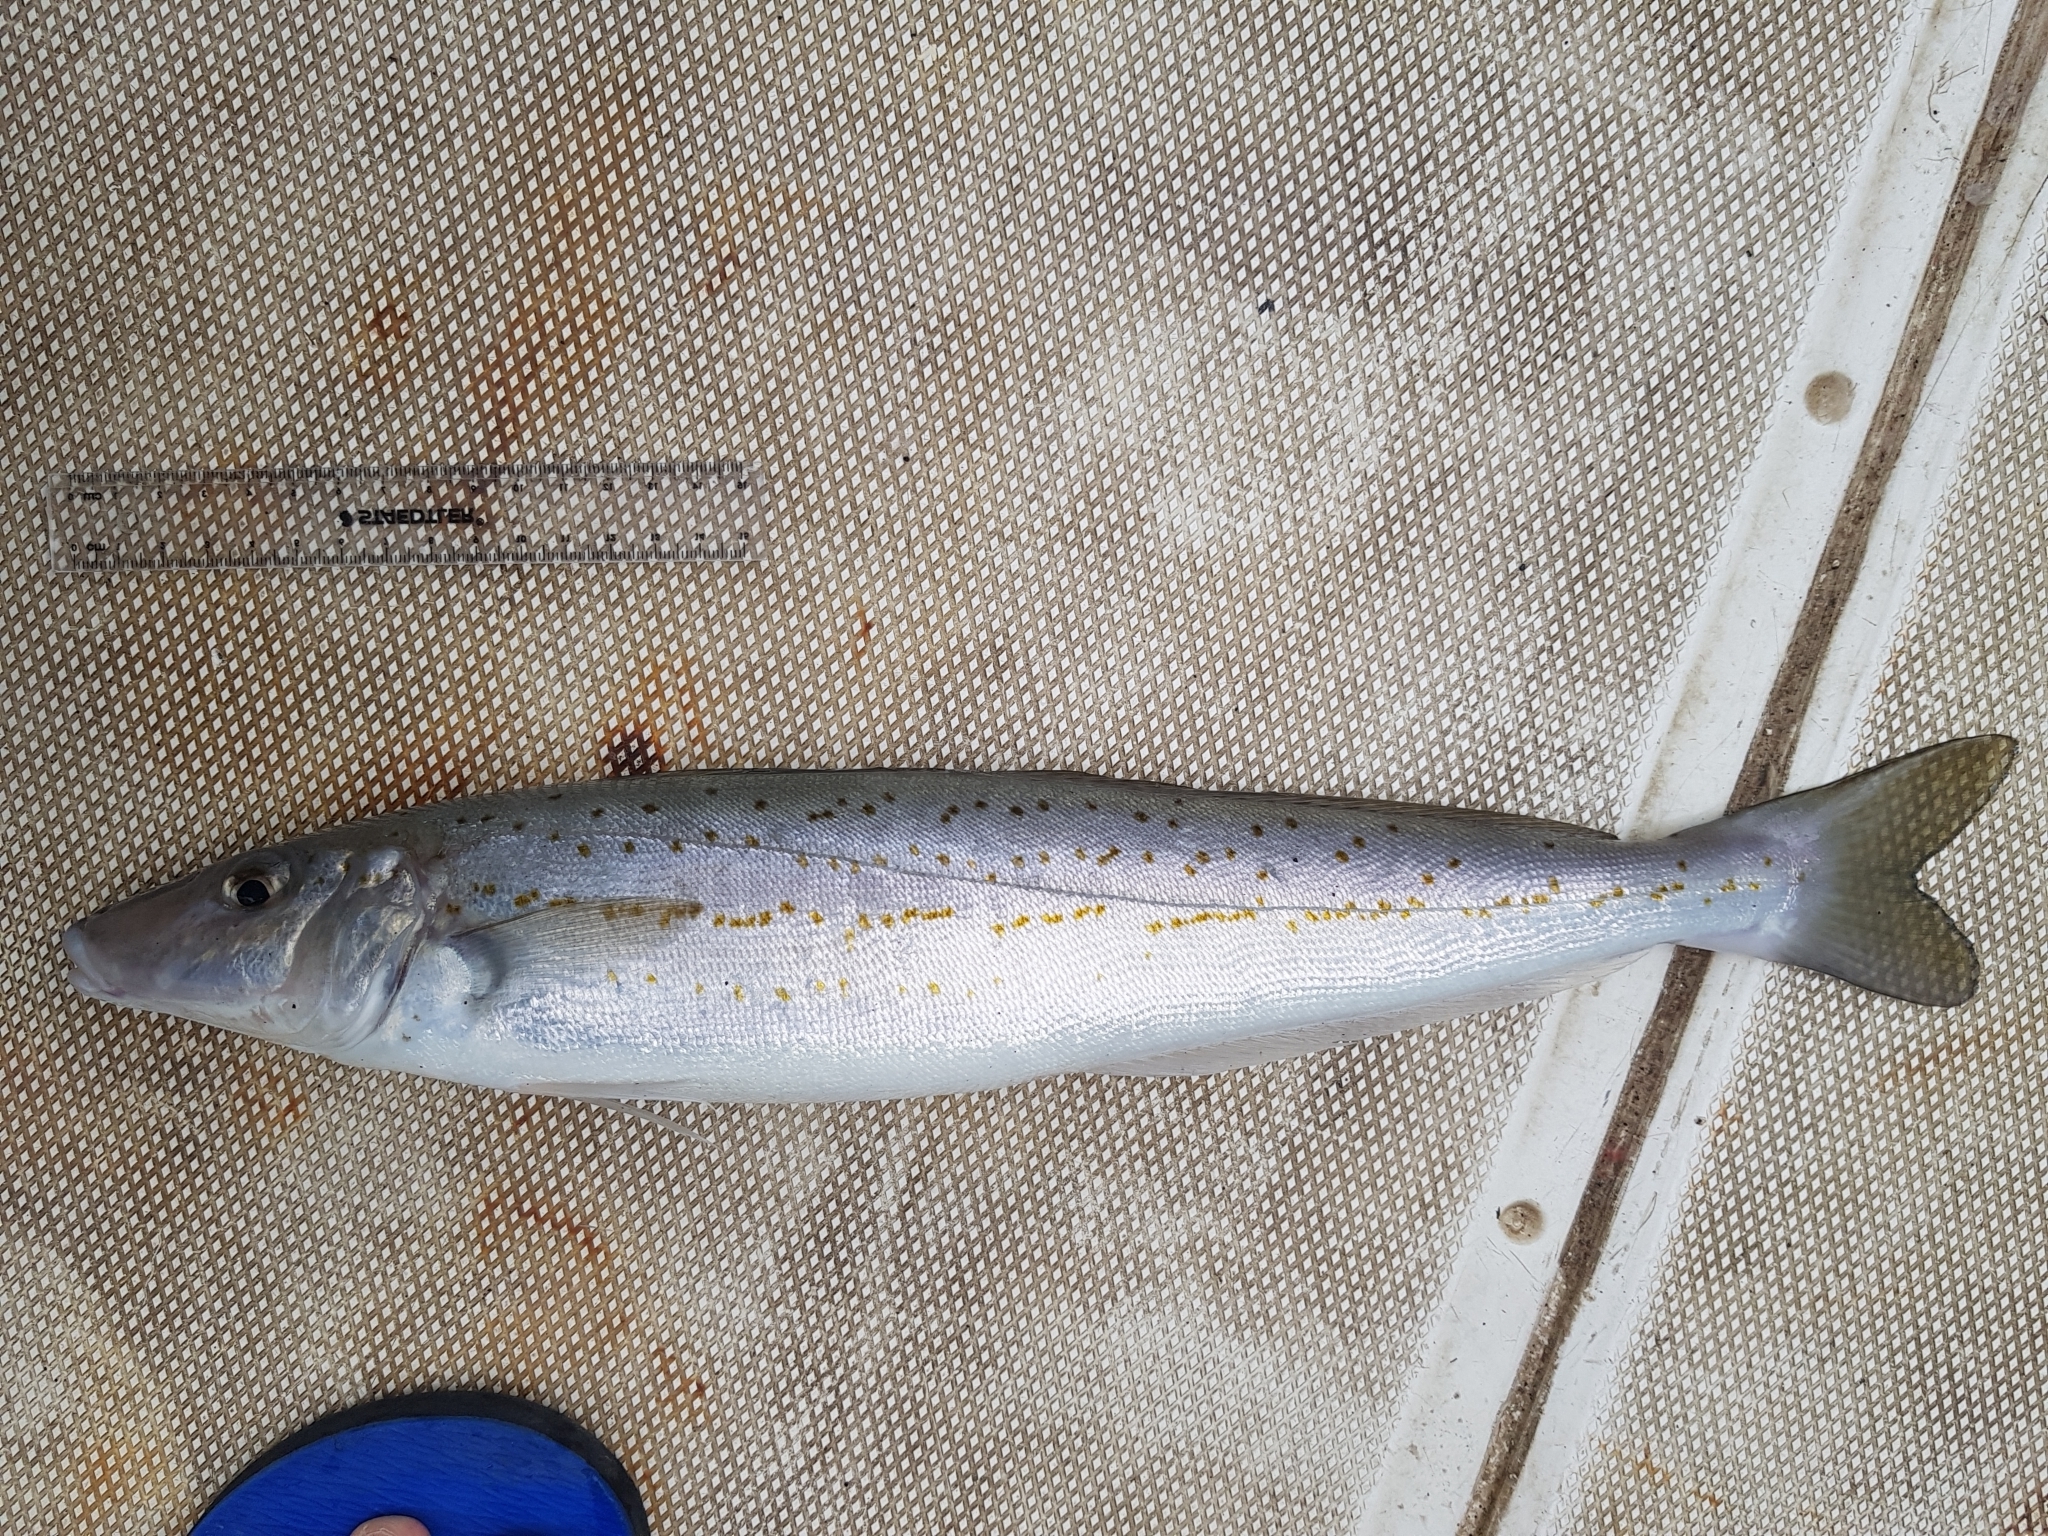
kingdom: Animalia
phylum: Chordata
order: Perciformes
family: Sillaginidae
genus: Sillaginodes
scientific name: Sillaginodes punctatus
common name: King george whiting
